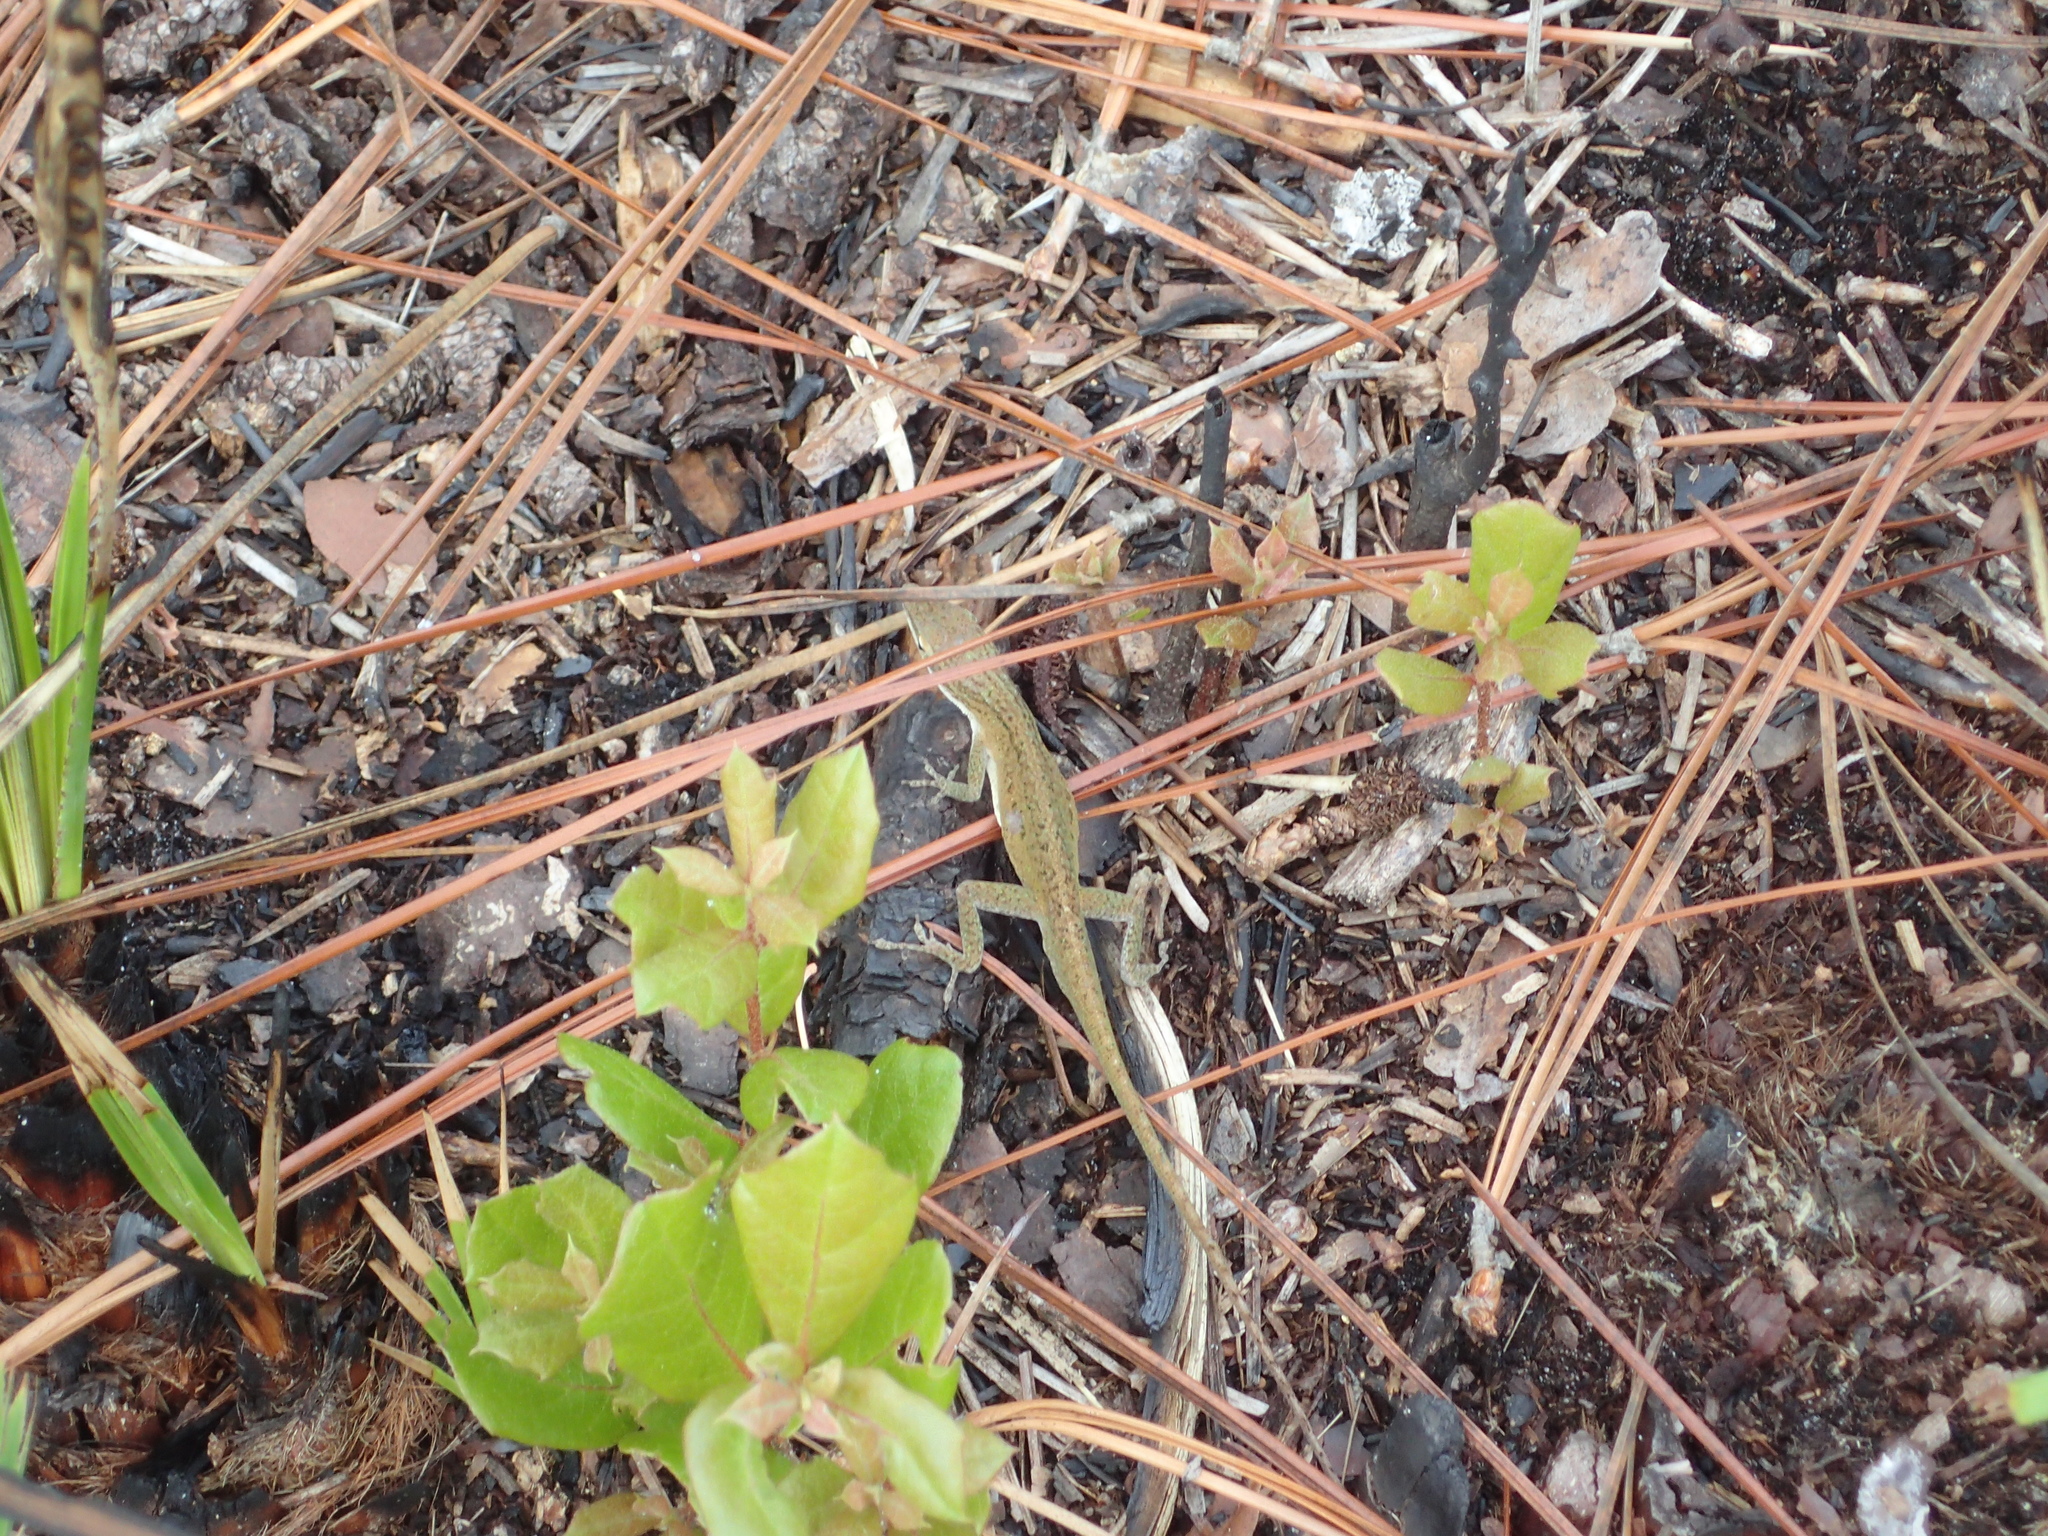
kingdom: Animalia
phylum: Chordata
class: Squamata
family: Dactyloidae
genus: Anolis
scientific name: Anolis carolinensis
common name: Green anole
